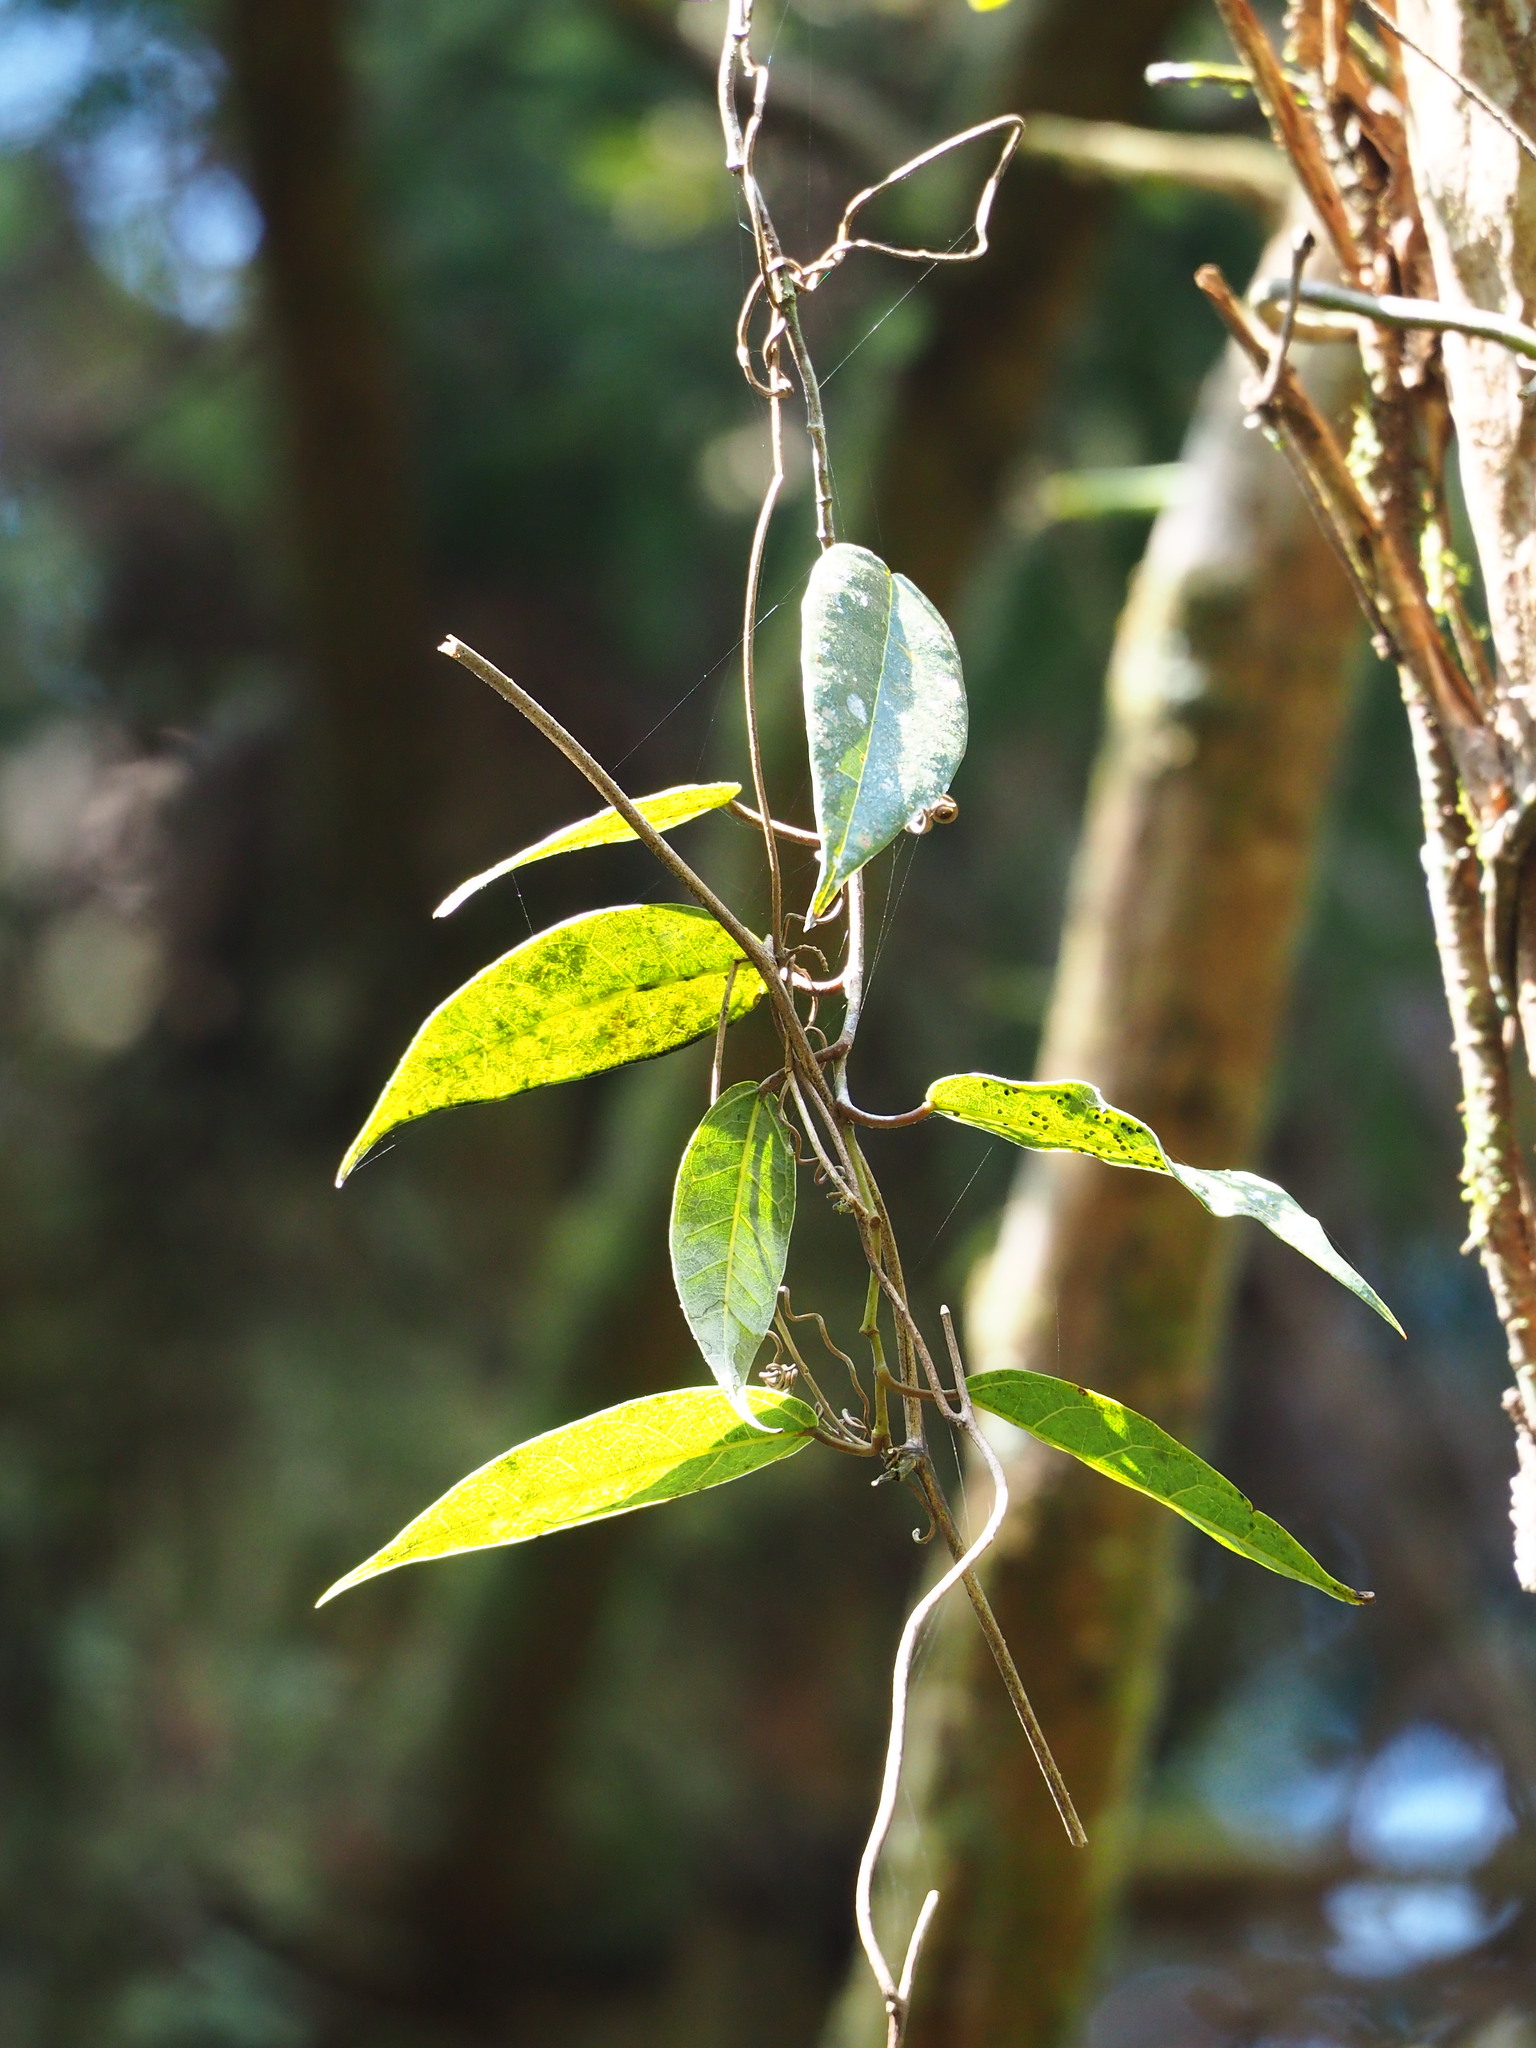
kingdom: Plantae
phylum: Tracheophyta
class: Magnoliopsida
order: Rosales
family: Moraceae
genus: Ficus
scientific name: Ficus sarmentosa
